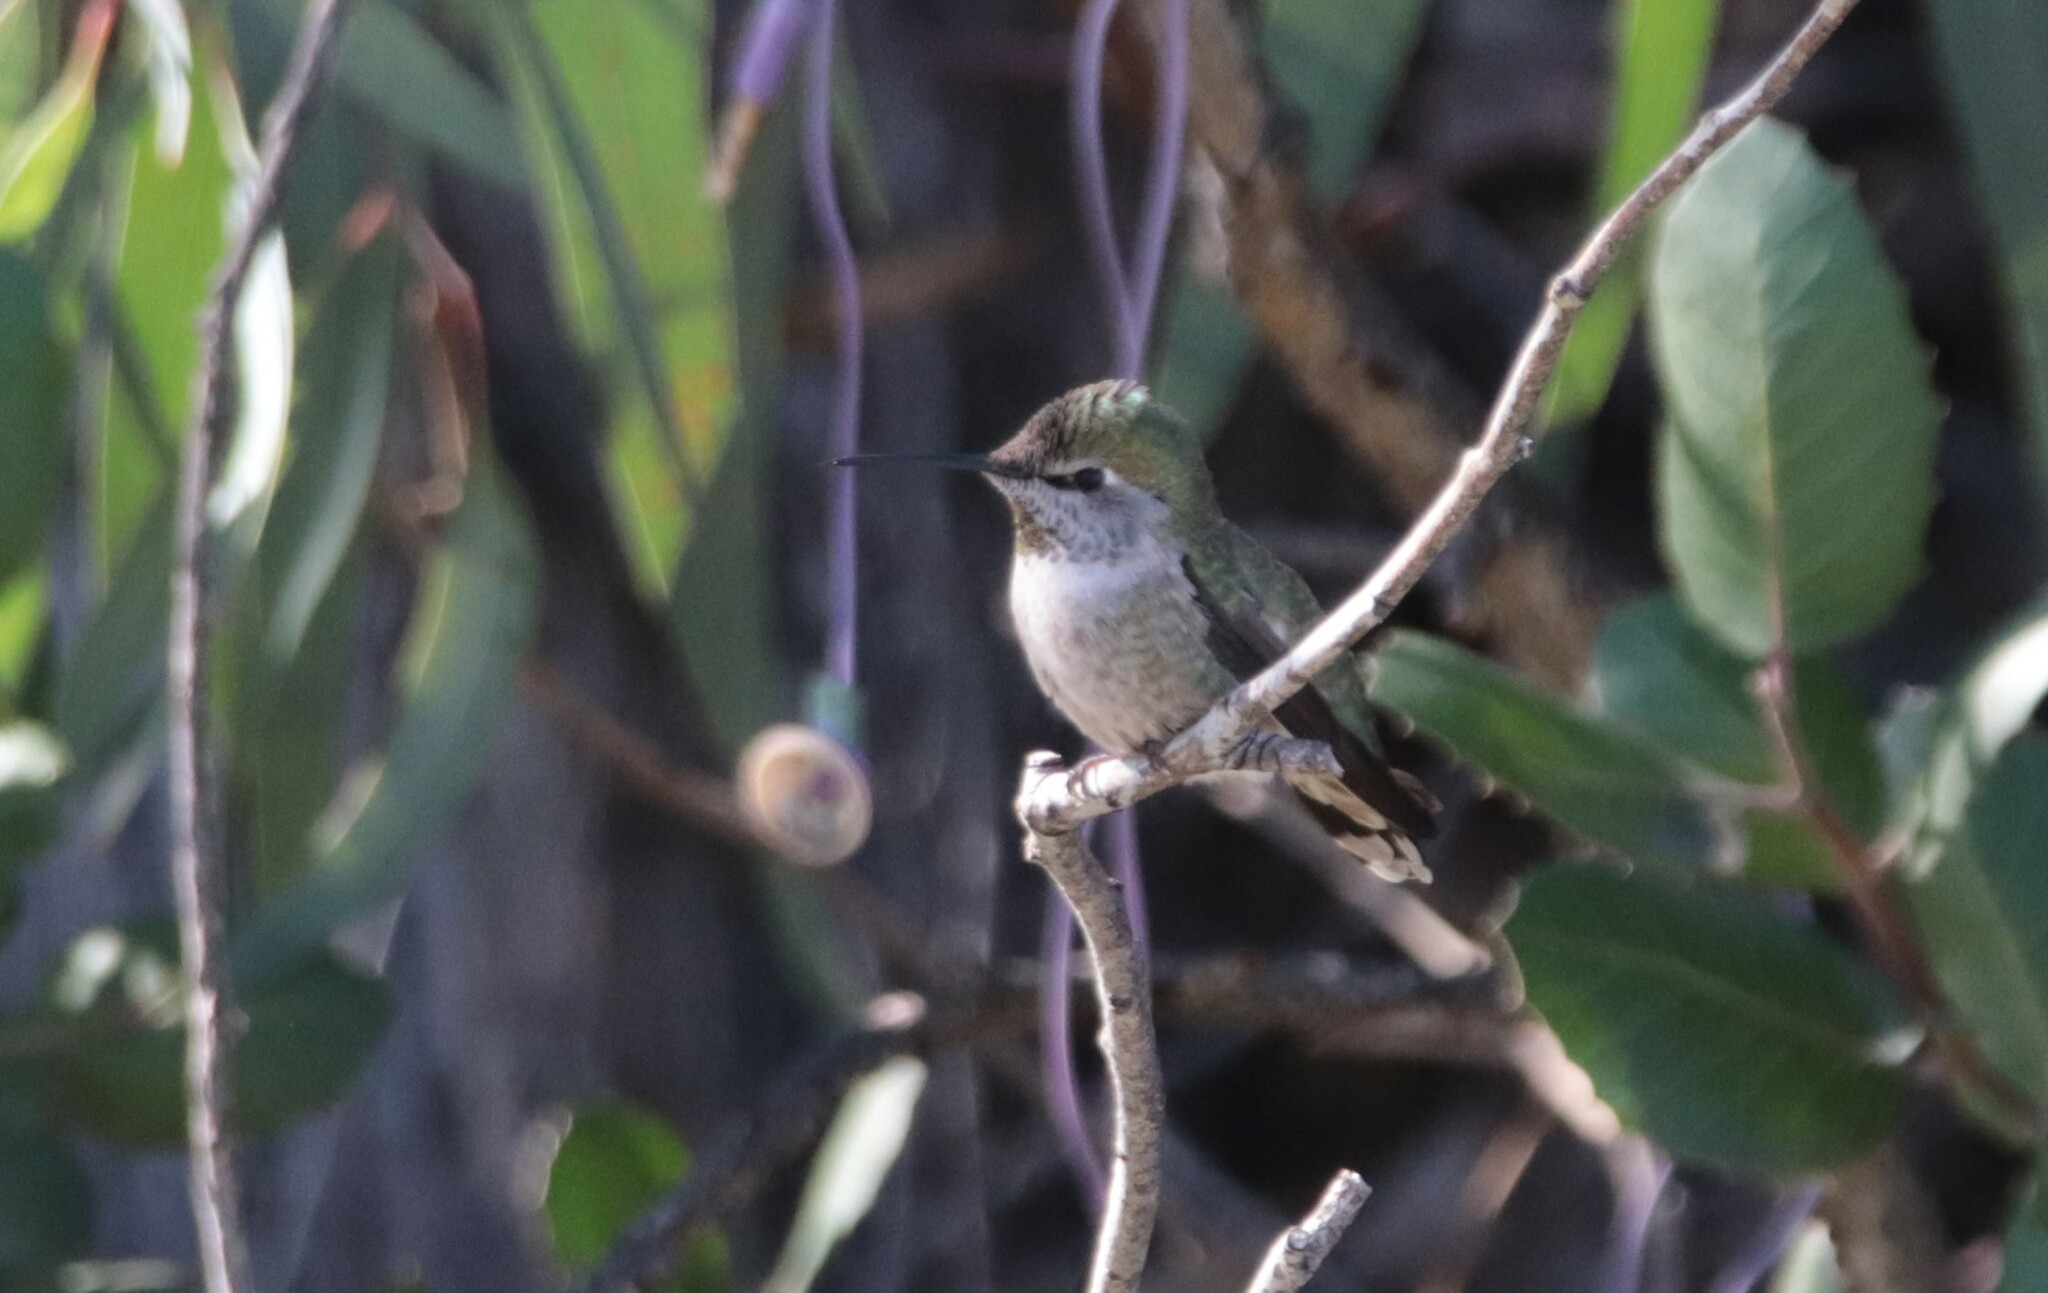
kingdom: Animalia
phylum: Chordata
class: Aves
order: Apodiformes
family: Trochilidae
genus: Calypte
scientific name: Calypte anna
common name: Anna's hummingbird
